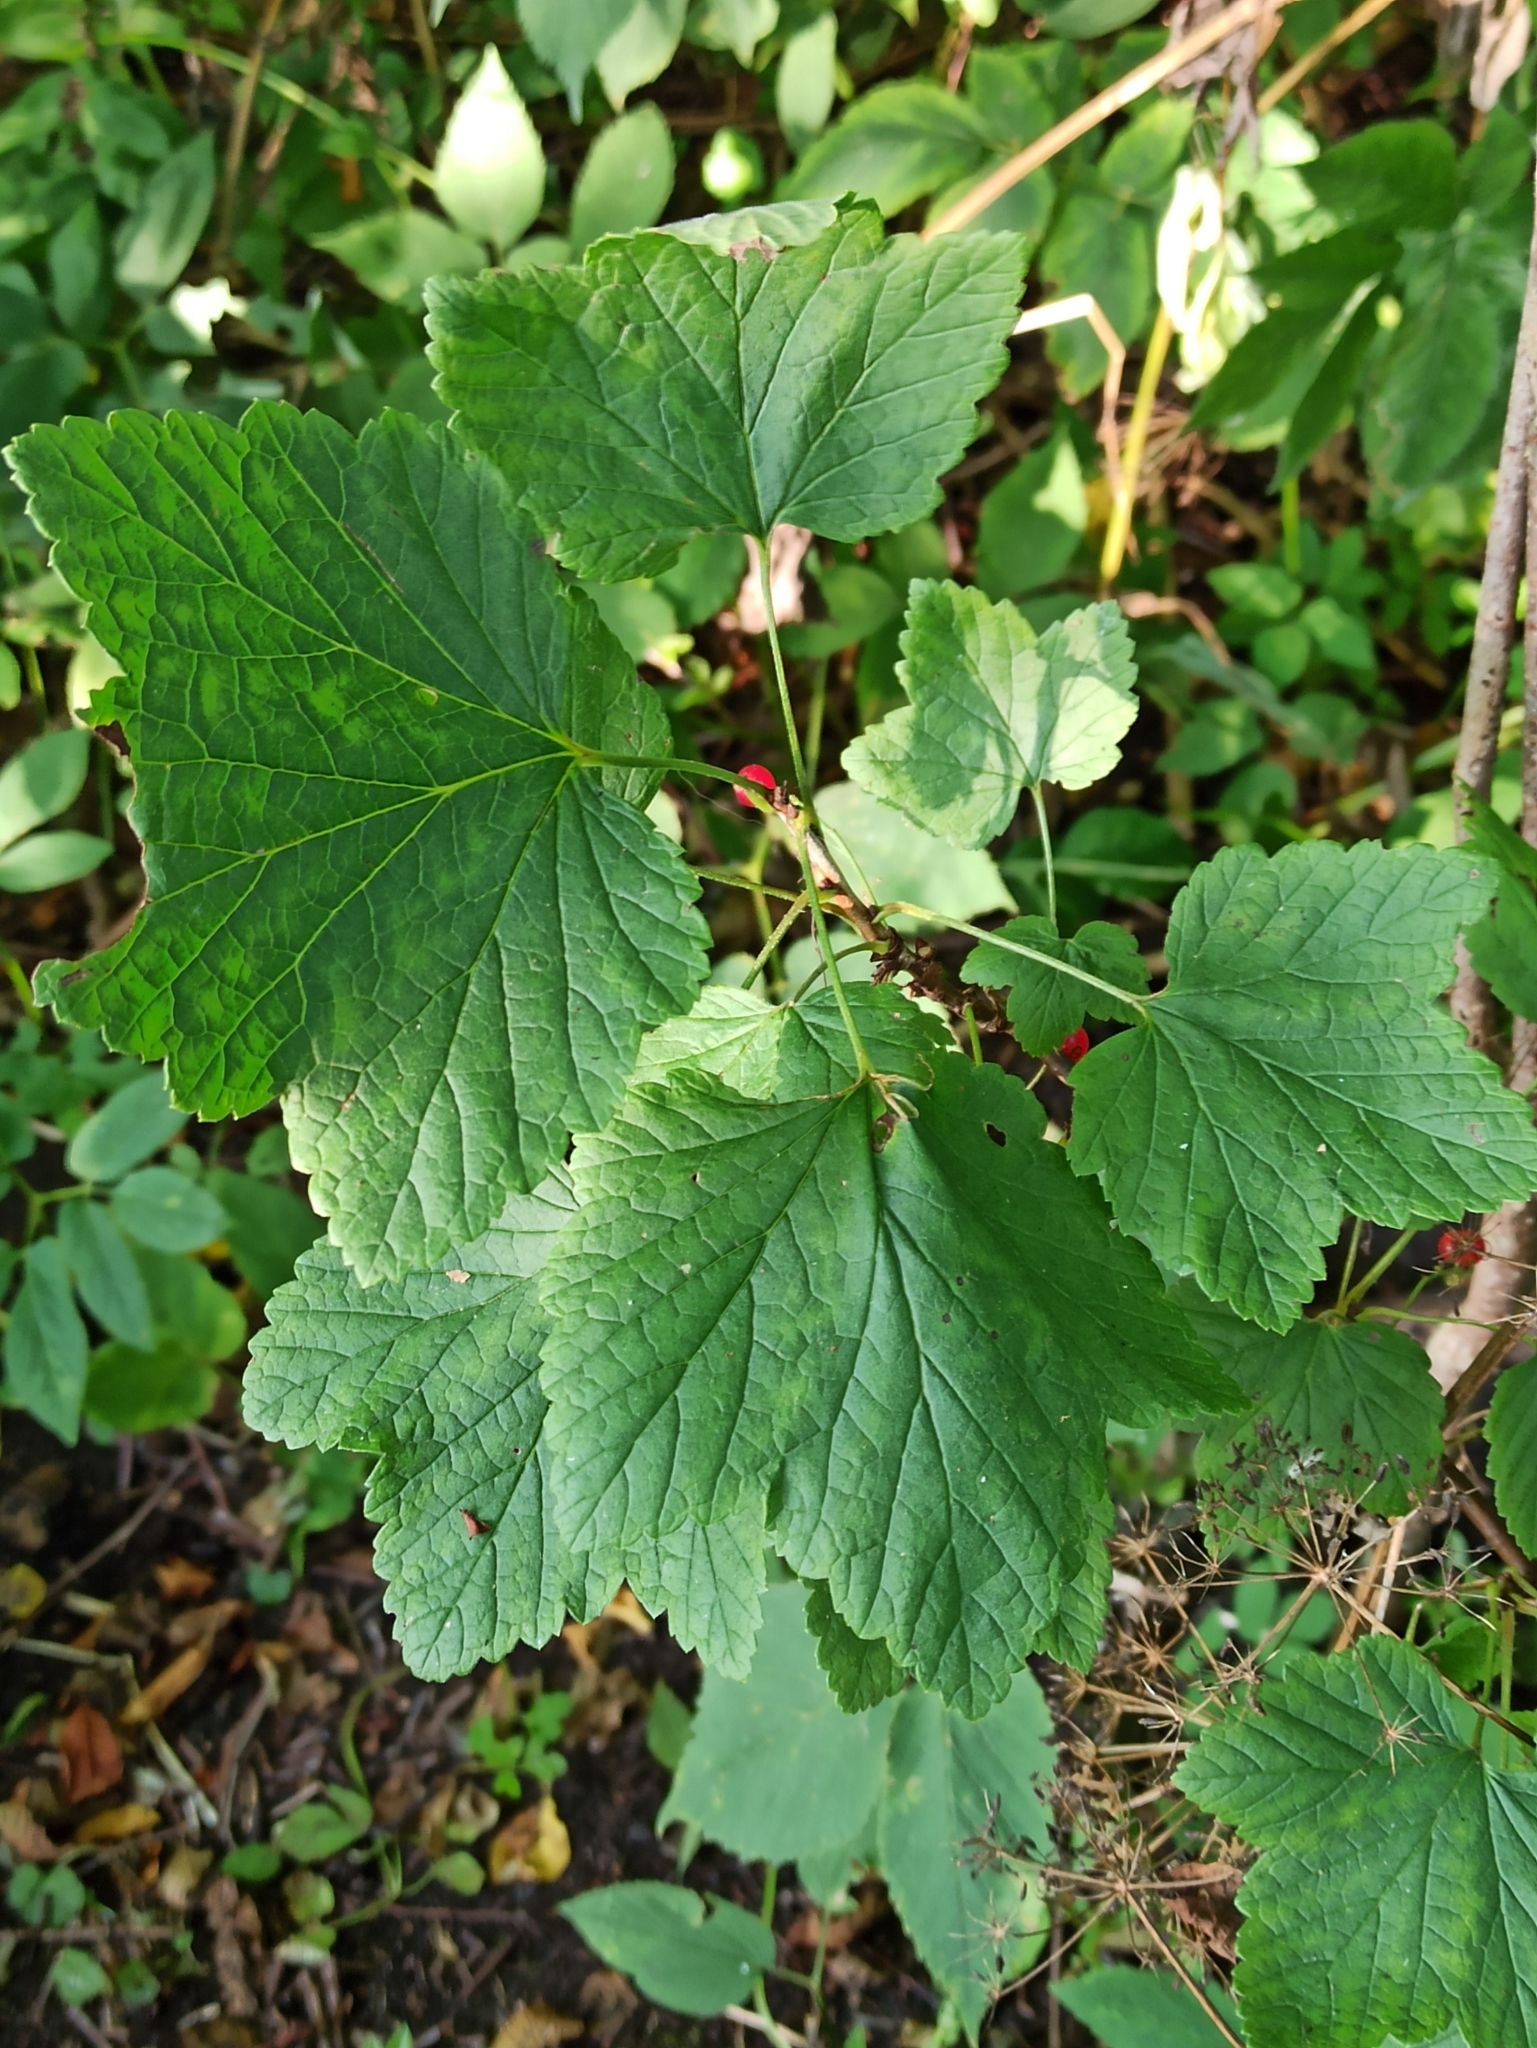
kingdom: Plantae
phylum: Tracheophyta
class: Magnoliopsida
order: Saxifragales
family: Grossulariaceae
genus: Ribes
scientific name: Ribes spicatum
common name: Downy currant
